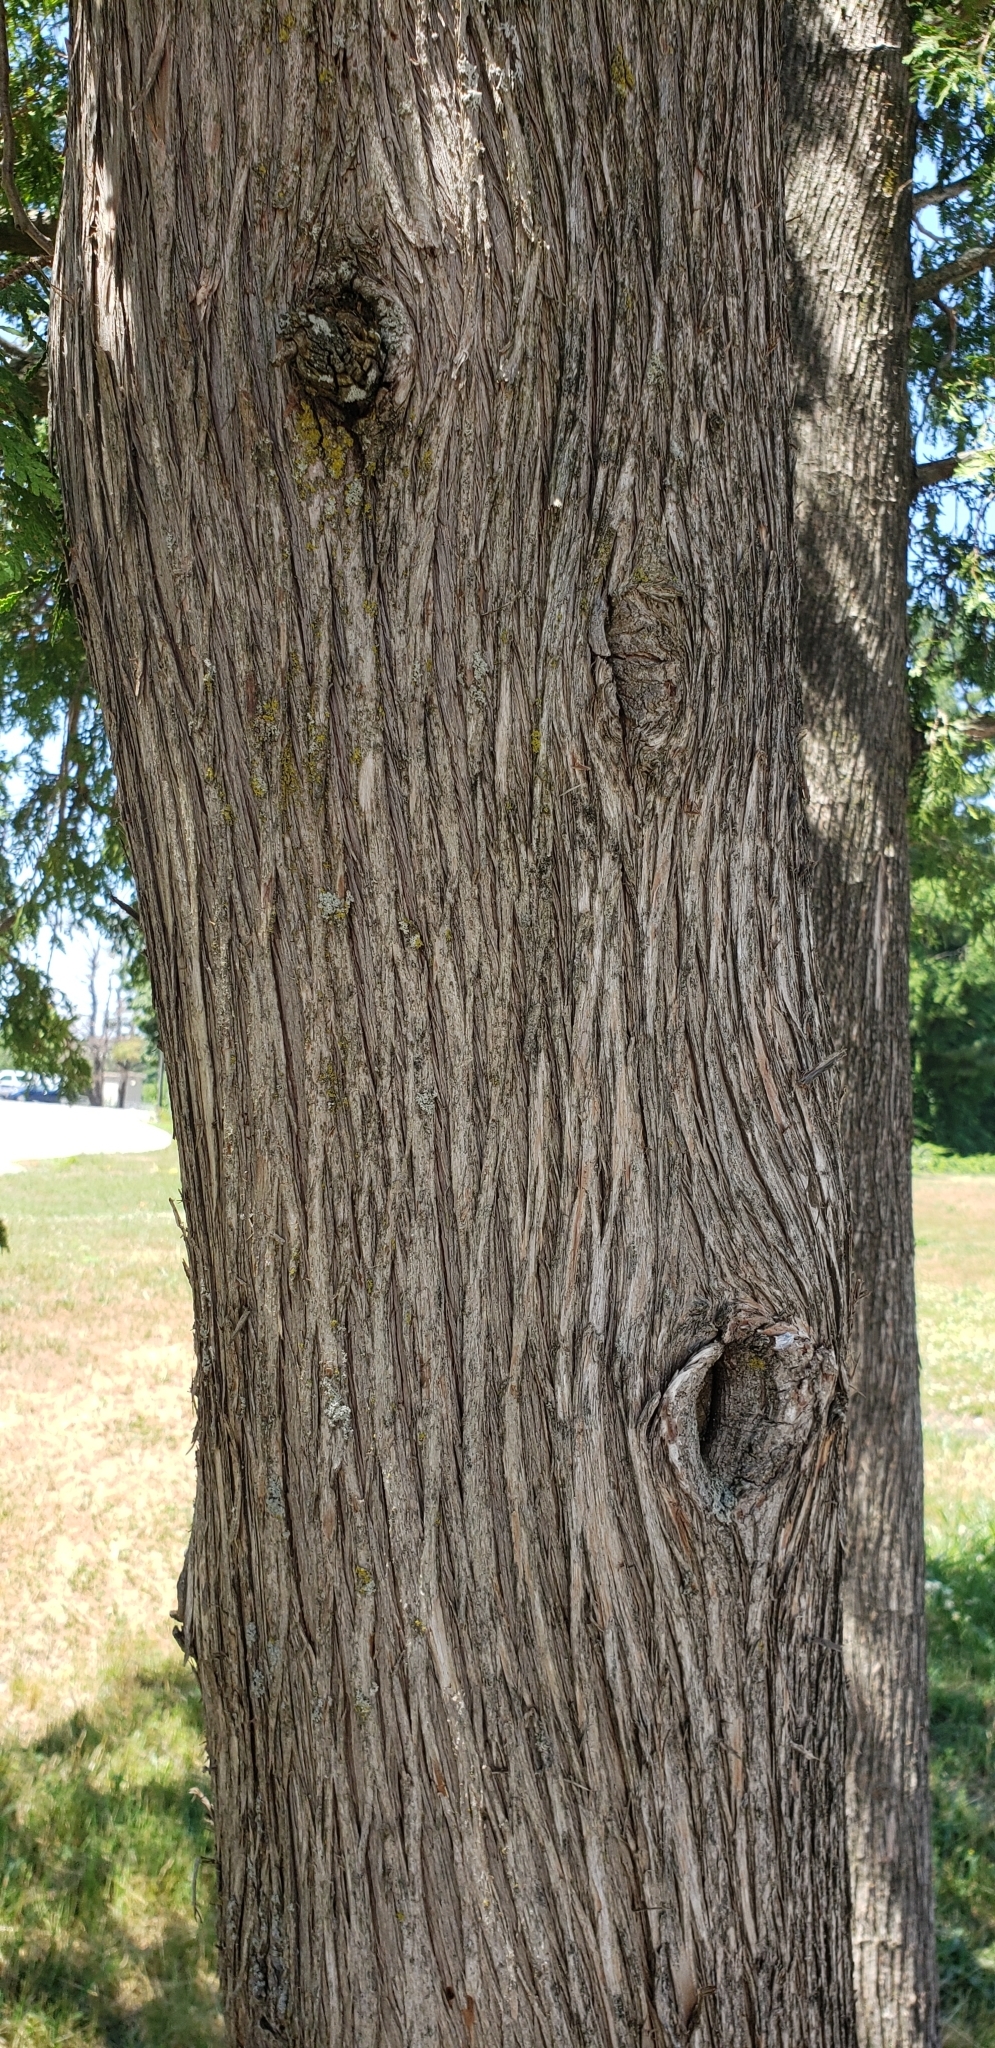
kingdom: Plantae
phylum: Tracheophyta
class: Pinopsida
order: Pinales
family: Cupressaceae
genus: Thuja
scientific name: Thuja occidentalis
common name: Northern white-cedar
